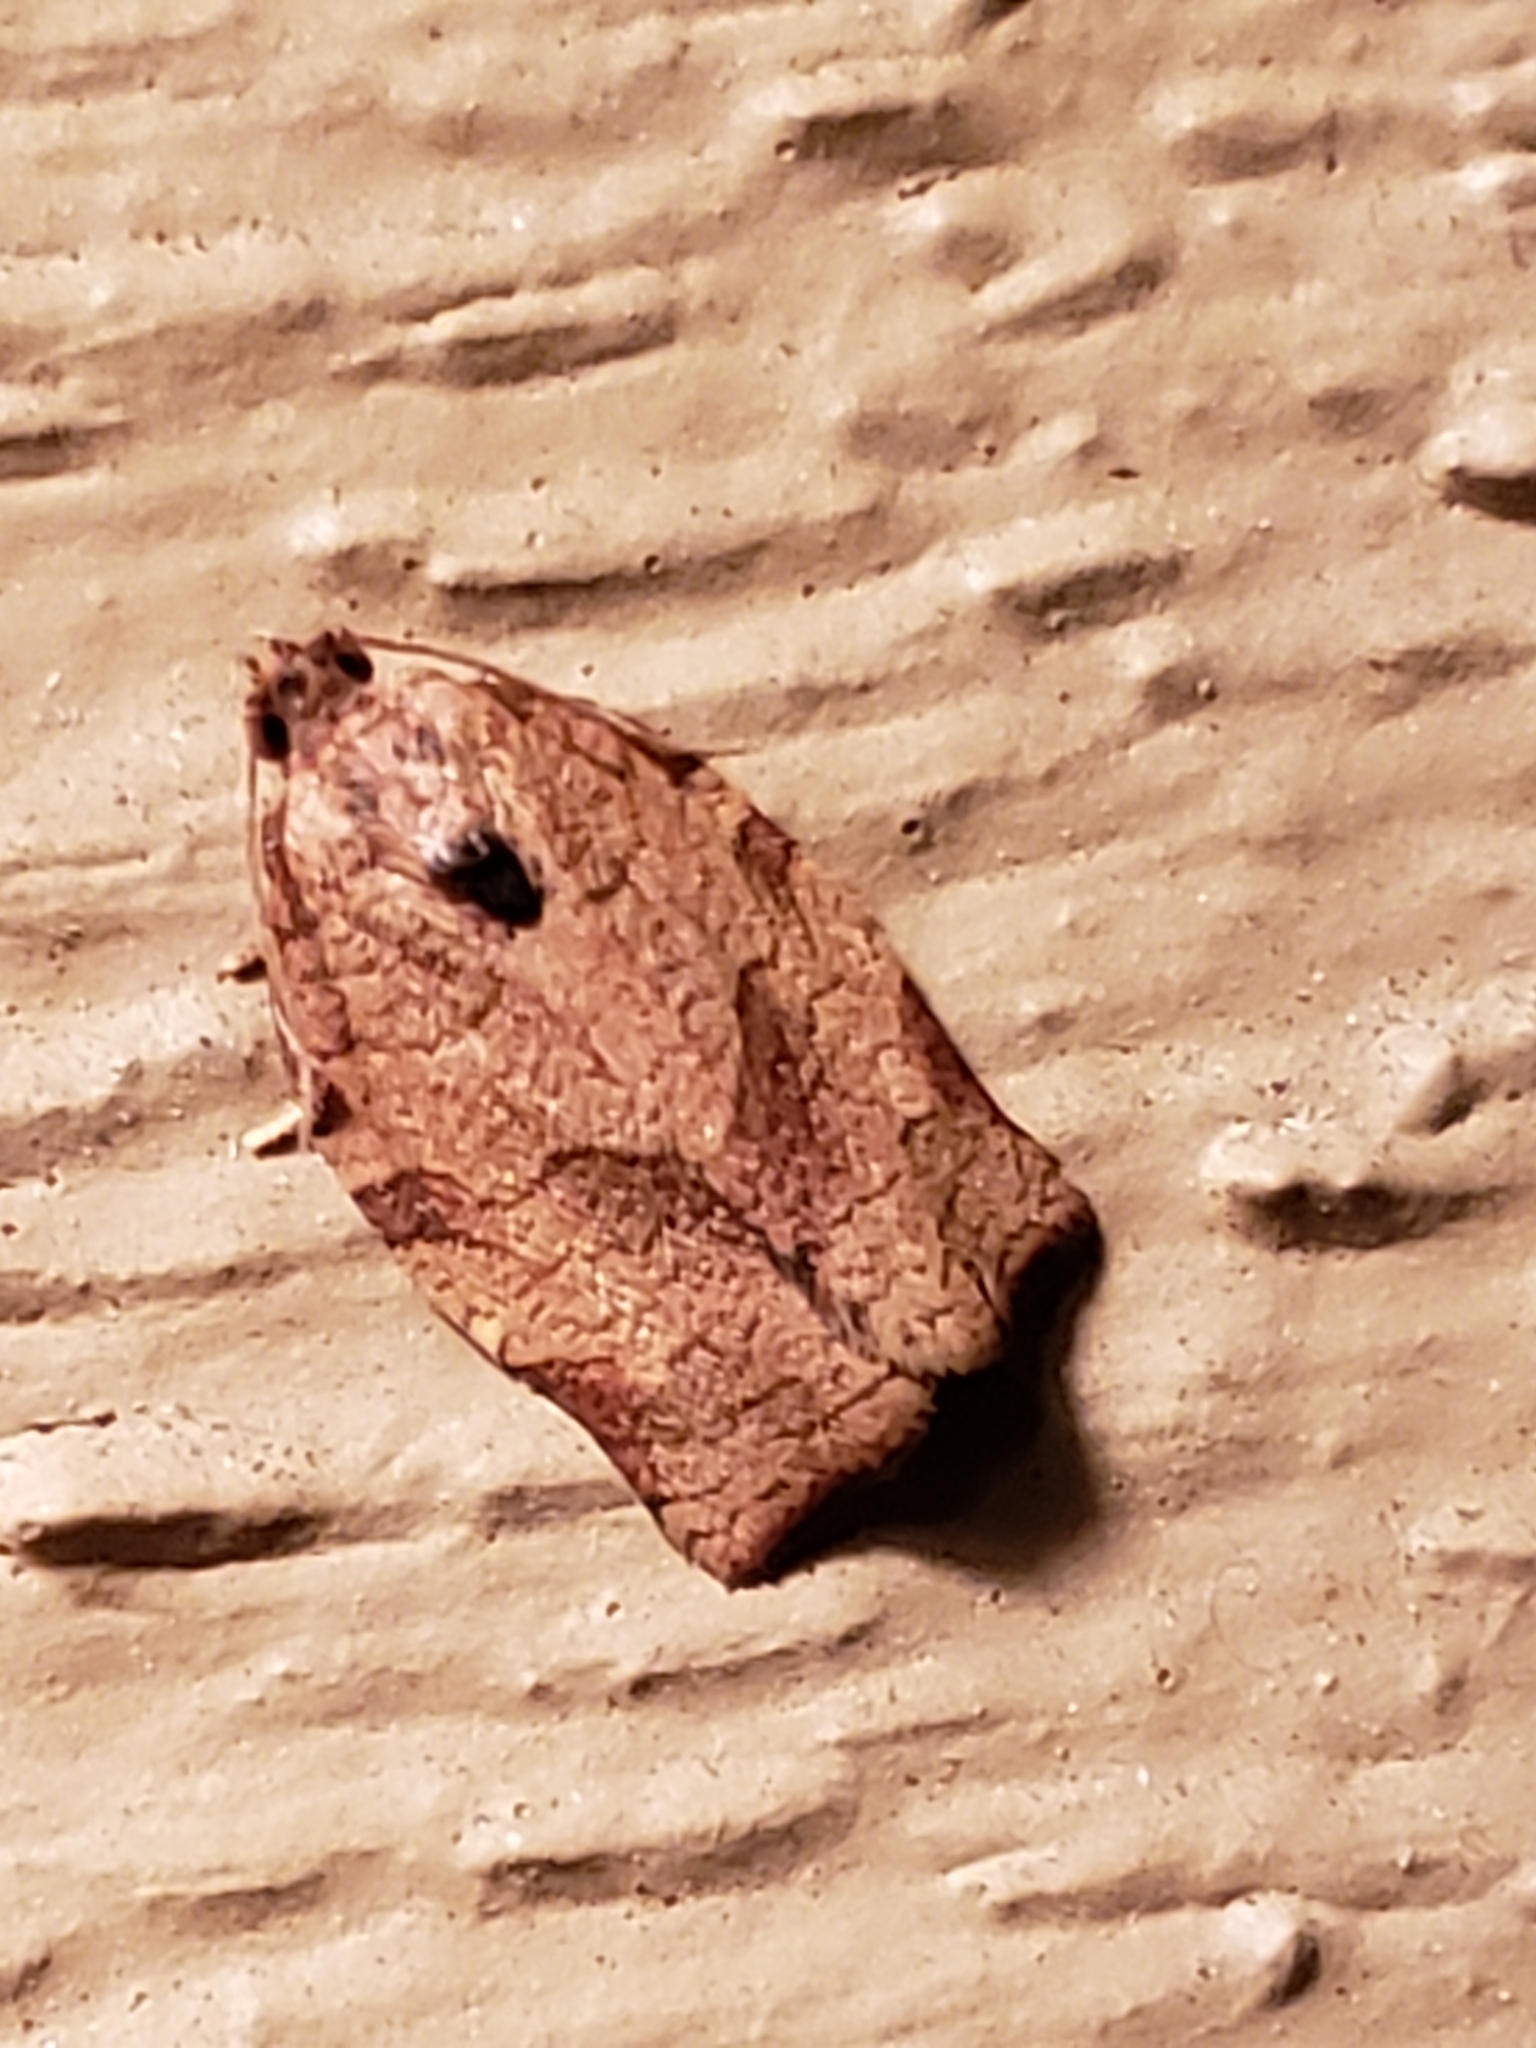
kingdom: Animalia
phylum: Arthropoda
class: Insecta
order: Lepidoptera
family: Tortricidae
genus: Choristoneura
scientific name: Choristoneura rosaceana
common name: Oblique-banded leafroller moth
